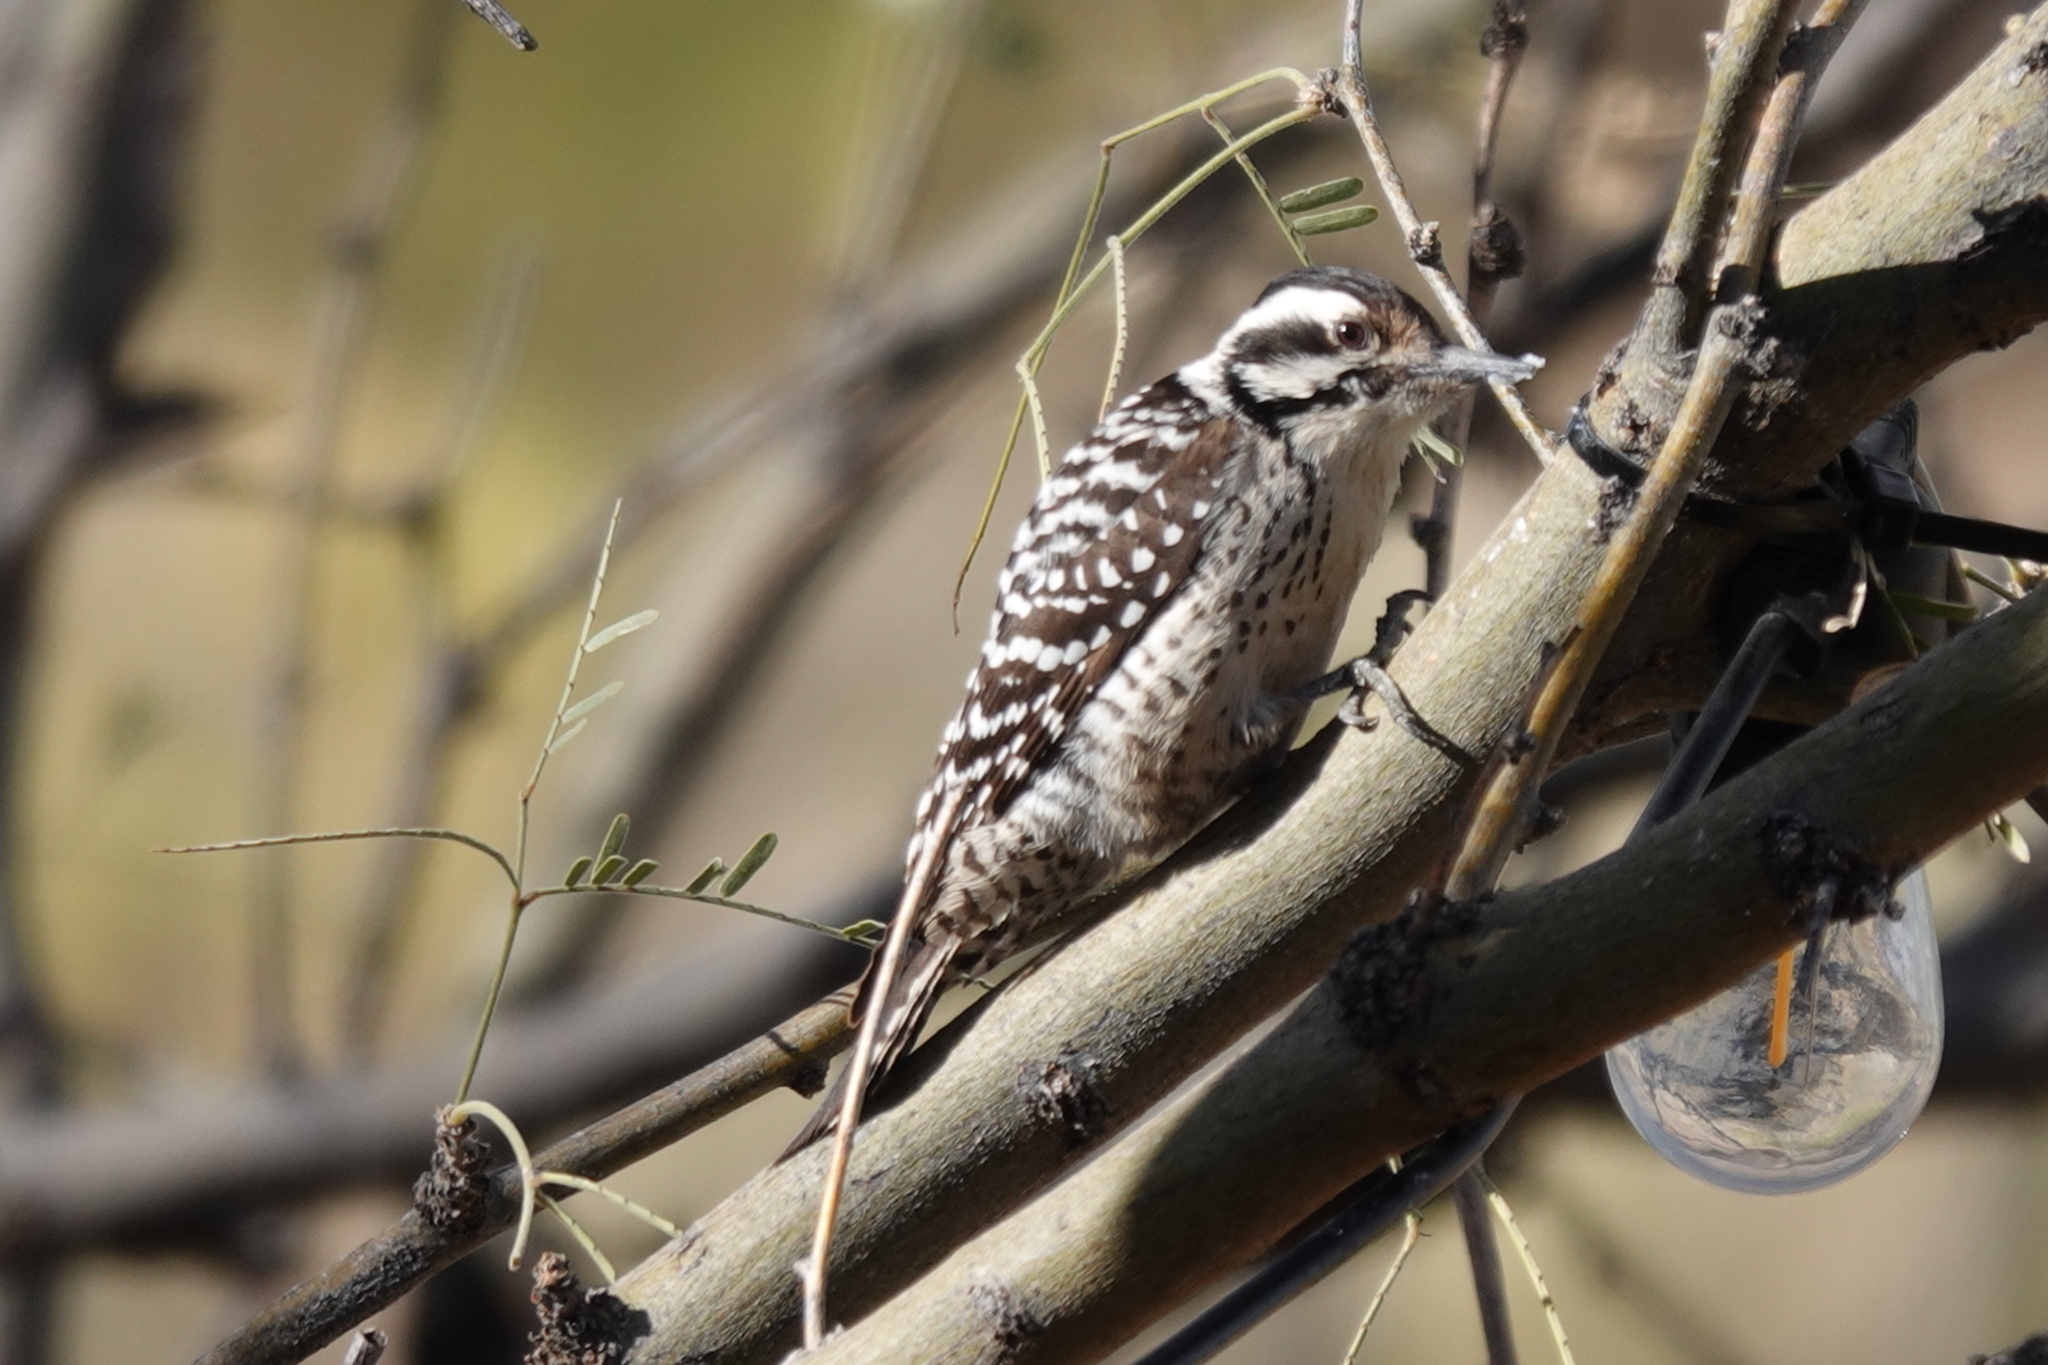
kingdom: Animalia
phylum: Chordata
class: Aves
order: Piciformes
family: Picidae
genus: Dryobates
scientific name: Dryobates scalaris
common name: Ladder-backed woodpecker
